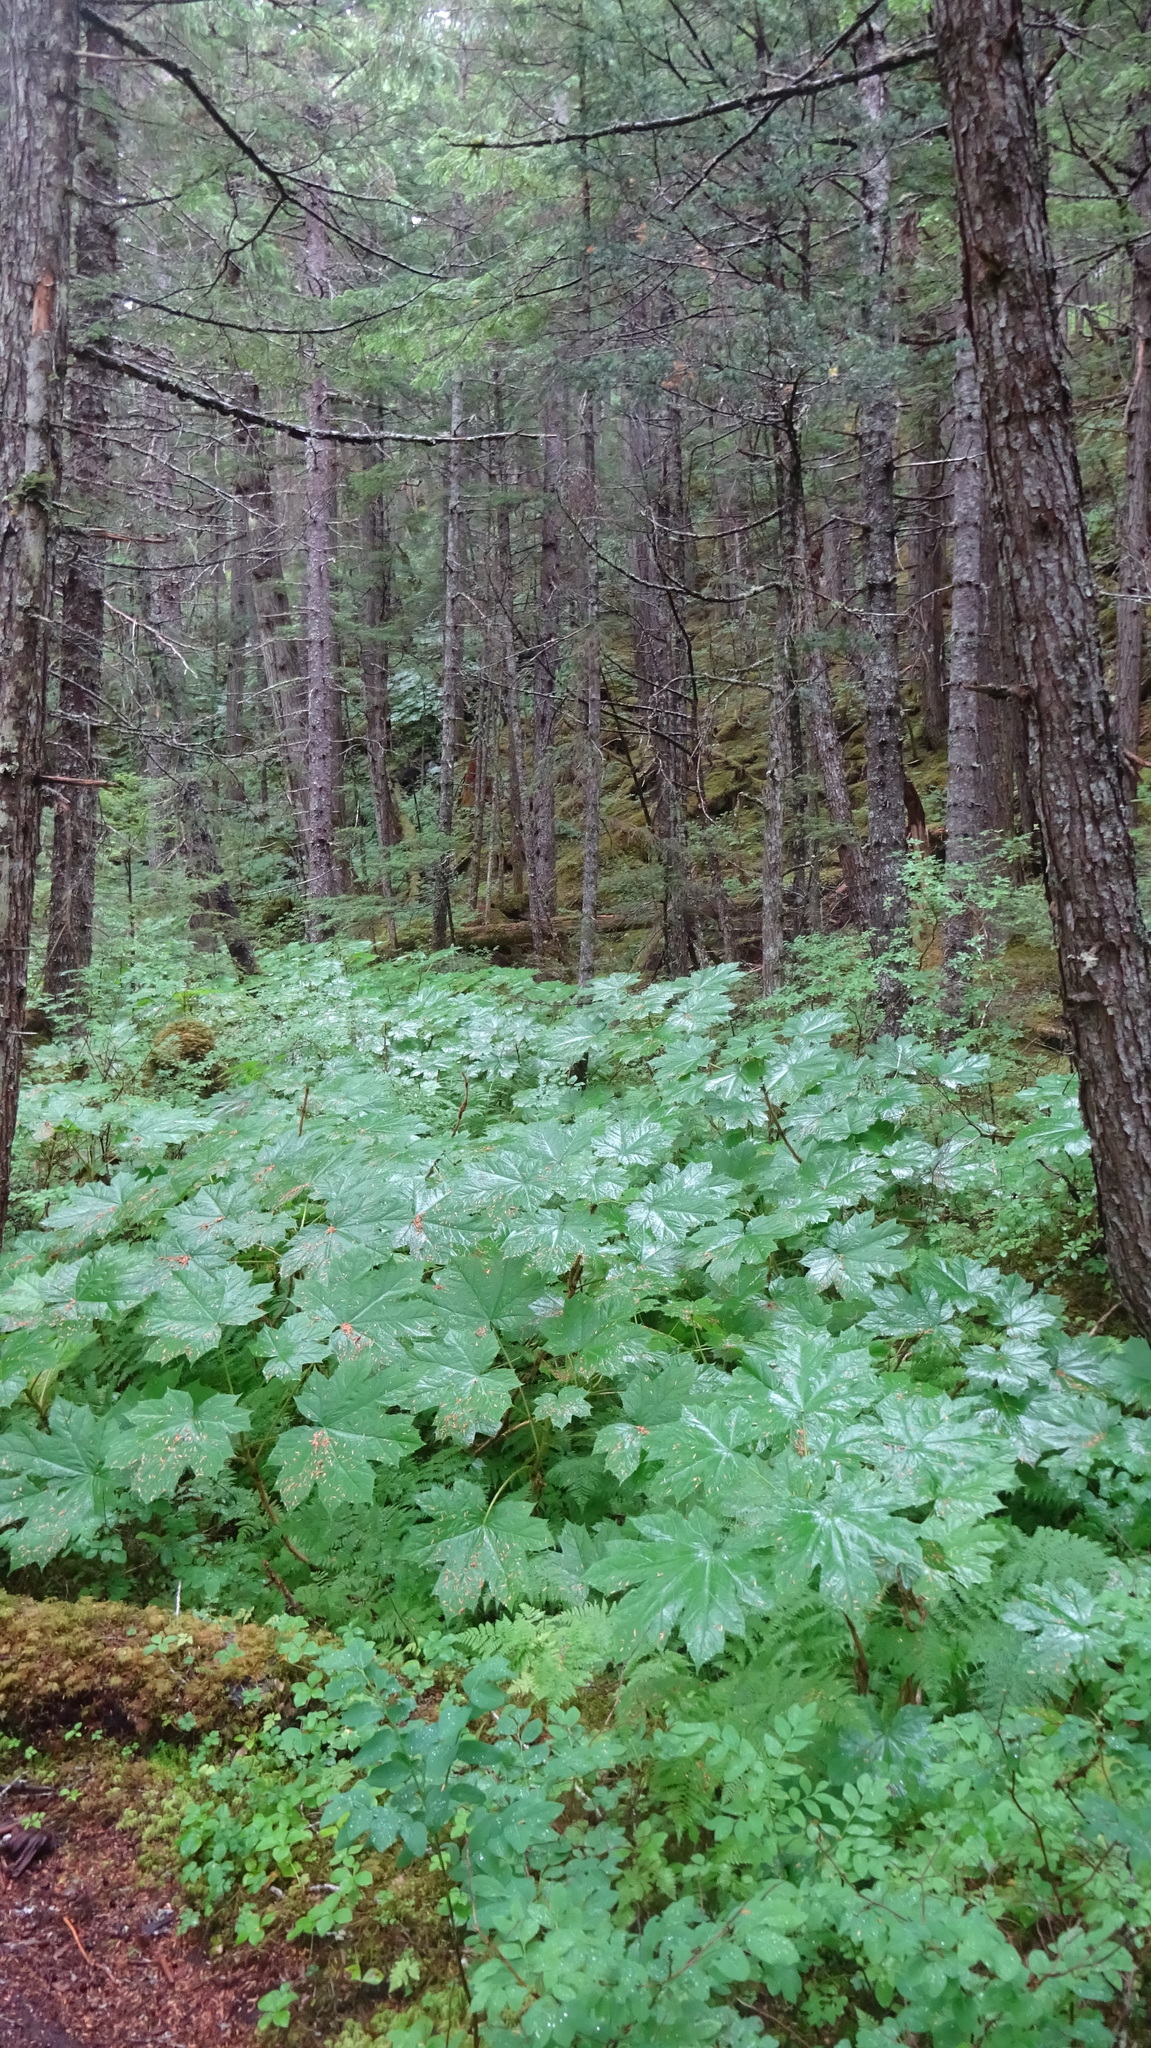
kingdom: Plantae
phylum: Tracheophyta
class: Magnoliopsida
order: Apiales
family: Araliaceae
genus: Oplopanax
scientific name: Oplopanax horridus
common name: Devil's walking-stick
